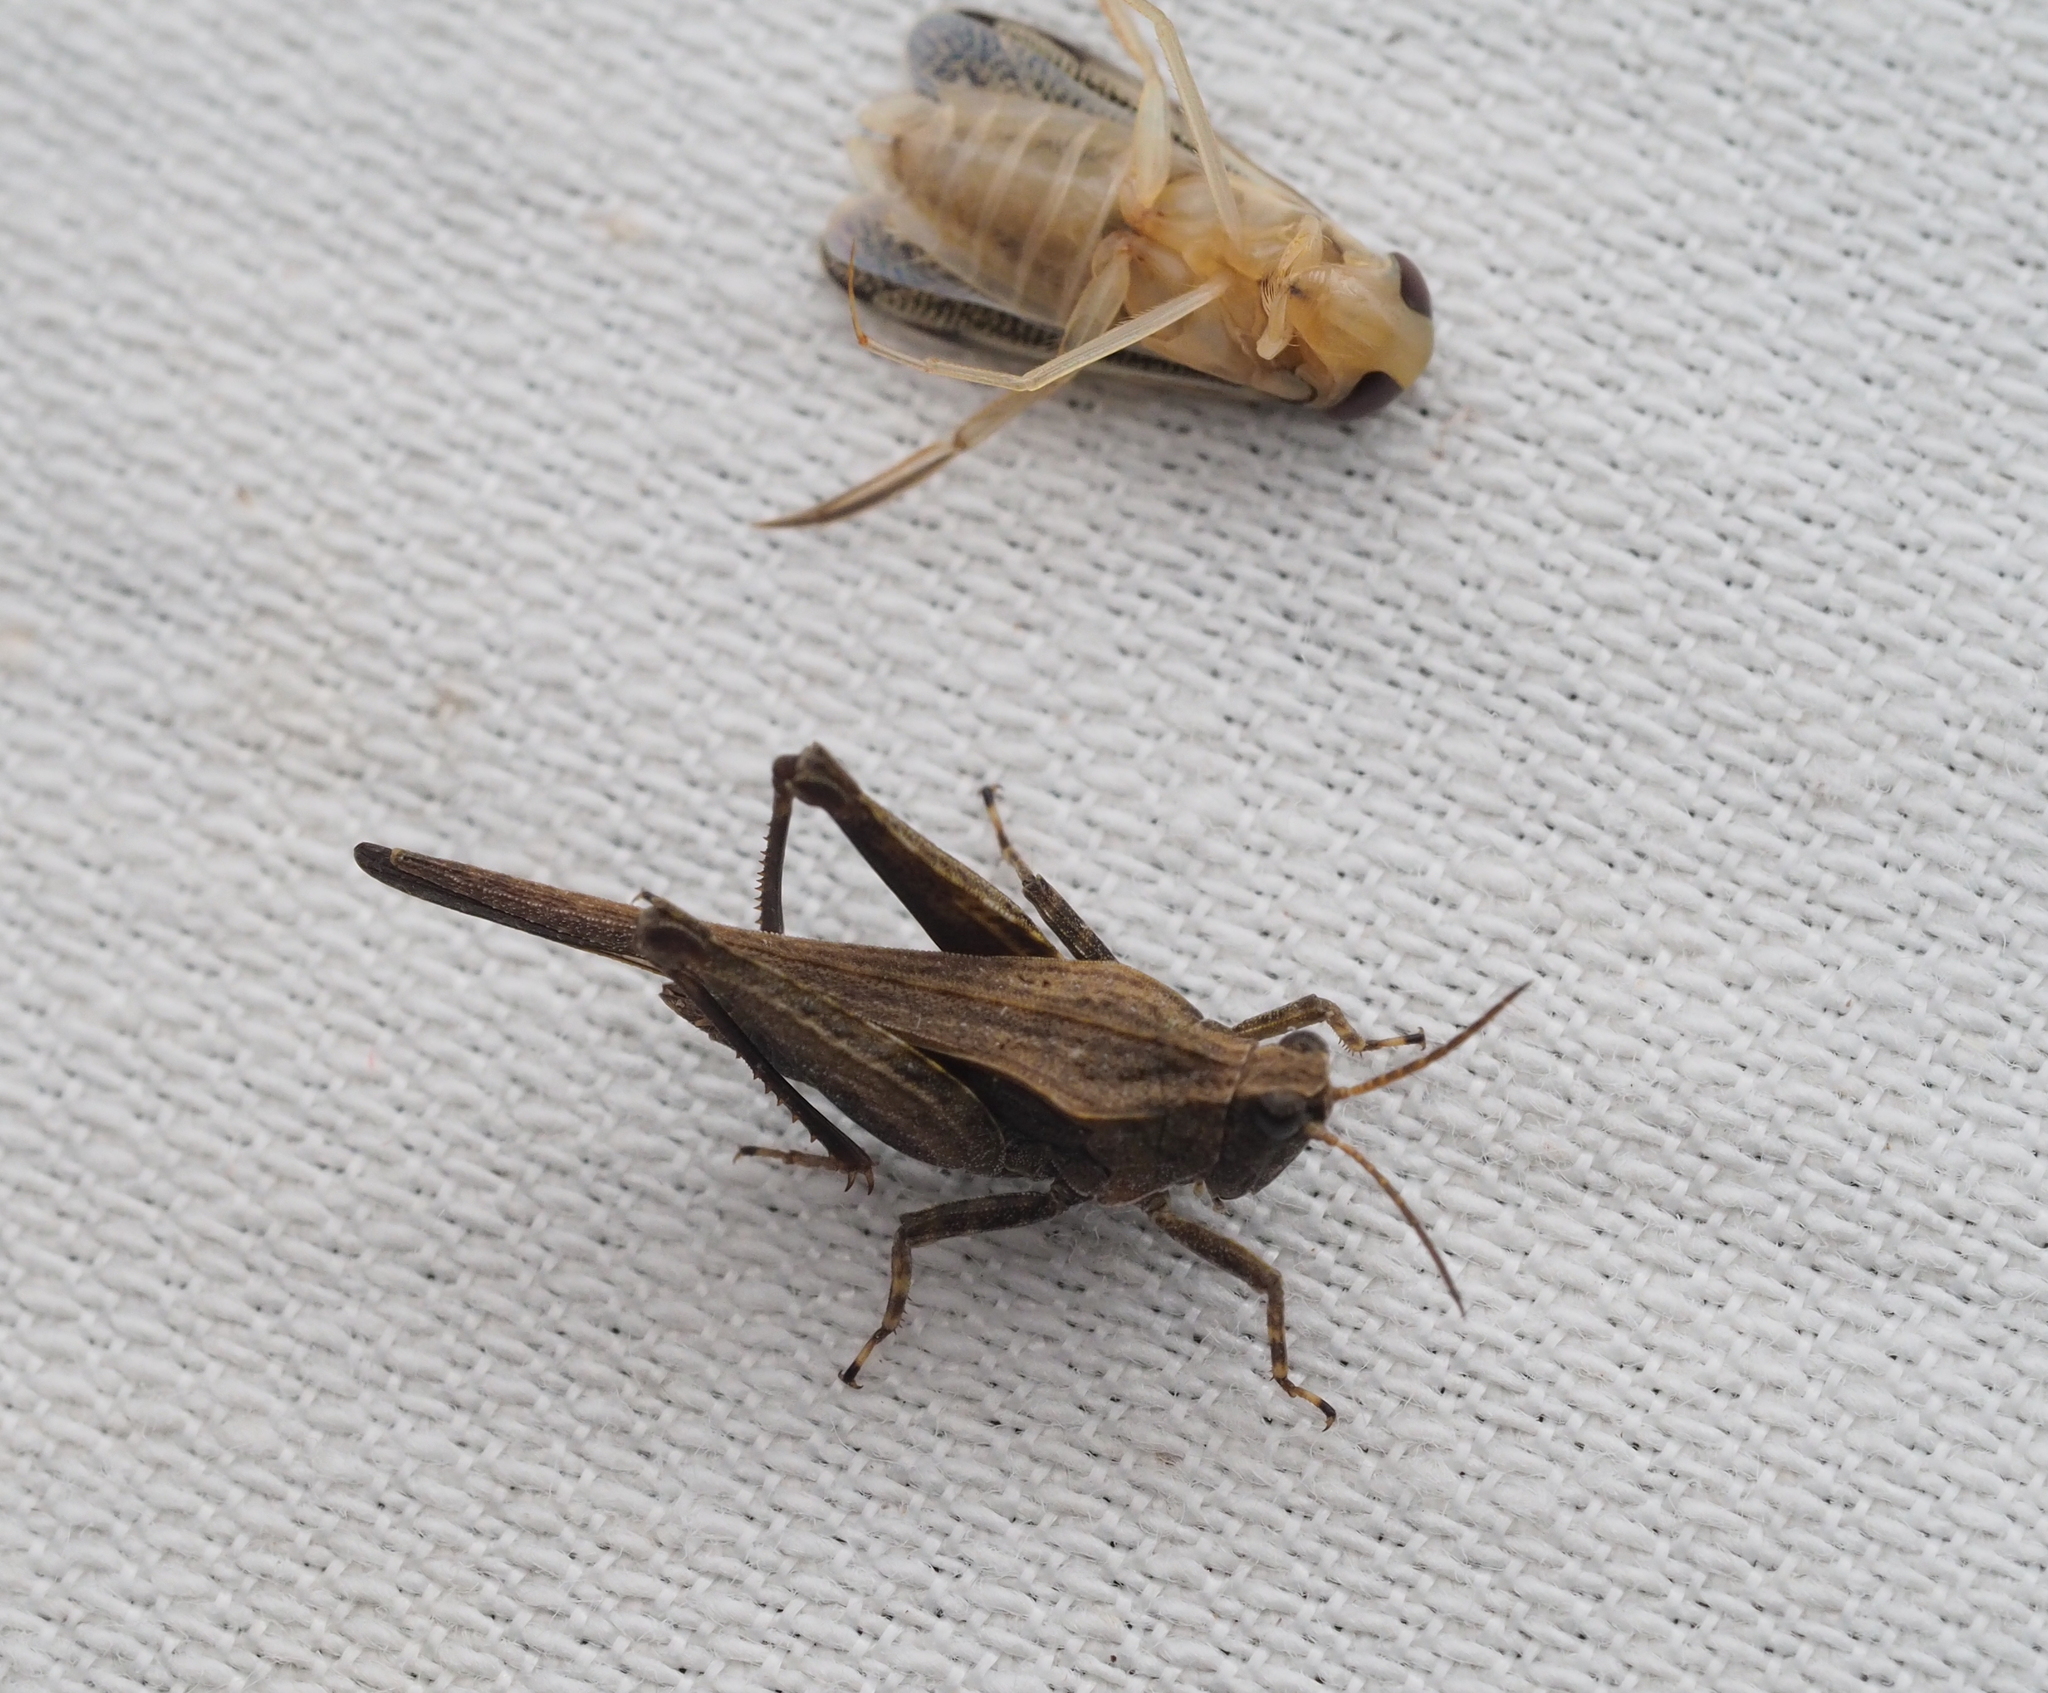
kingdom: Animalia
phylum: Arthropoda
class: Insecta
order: Orthoptera
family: Tetrigidae
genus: Tetrix
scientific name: Tetrix subulata
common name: Slender ground-hopper
